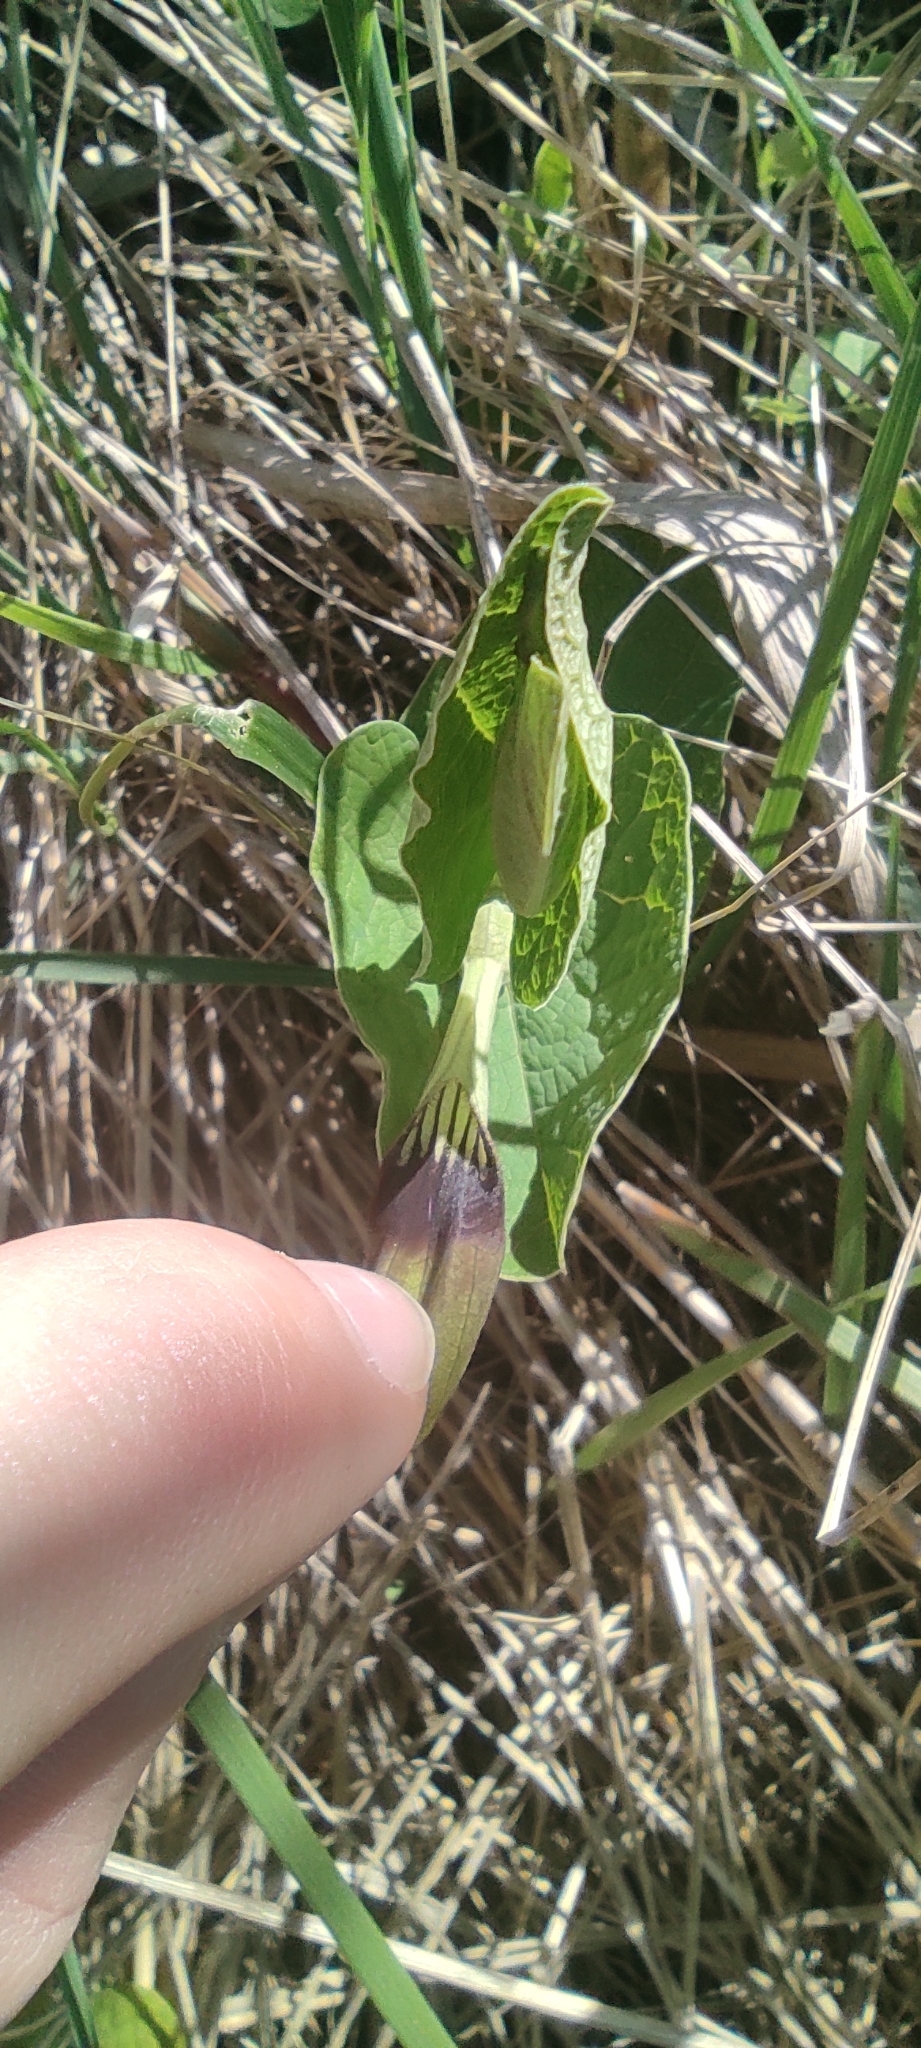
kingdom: Plantae
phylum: Tracheophyta
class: Magnoliopsida
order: Piperales
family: Aristolochiaceae
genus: Aristolochia
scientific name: Aristolochia rotunda
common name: Smearwort
